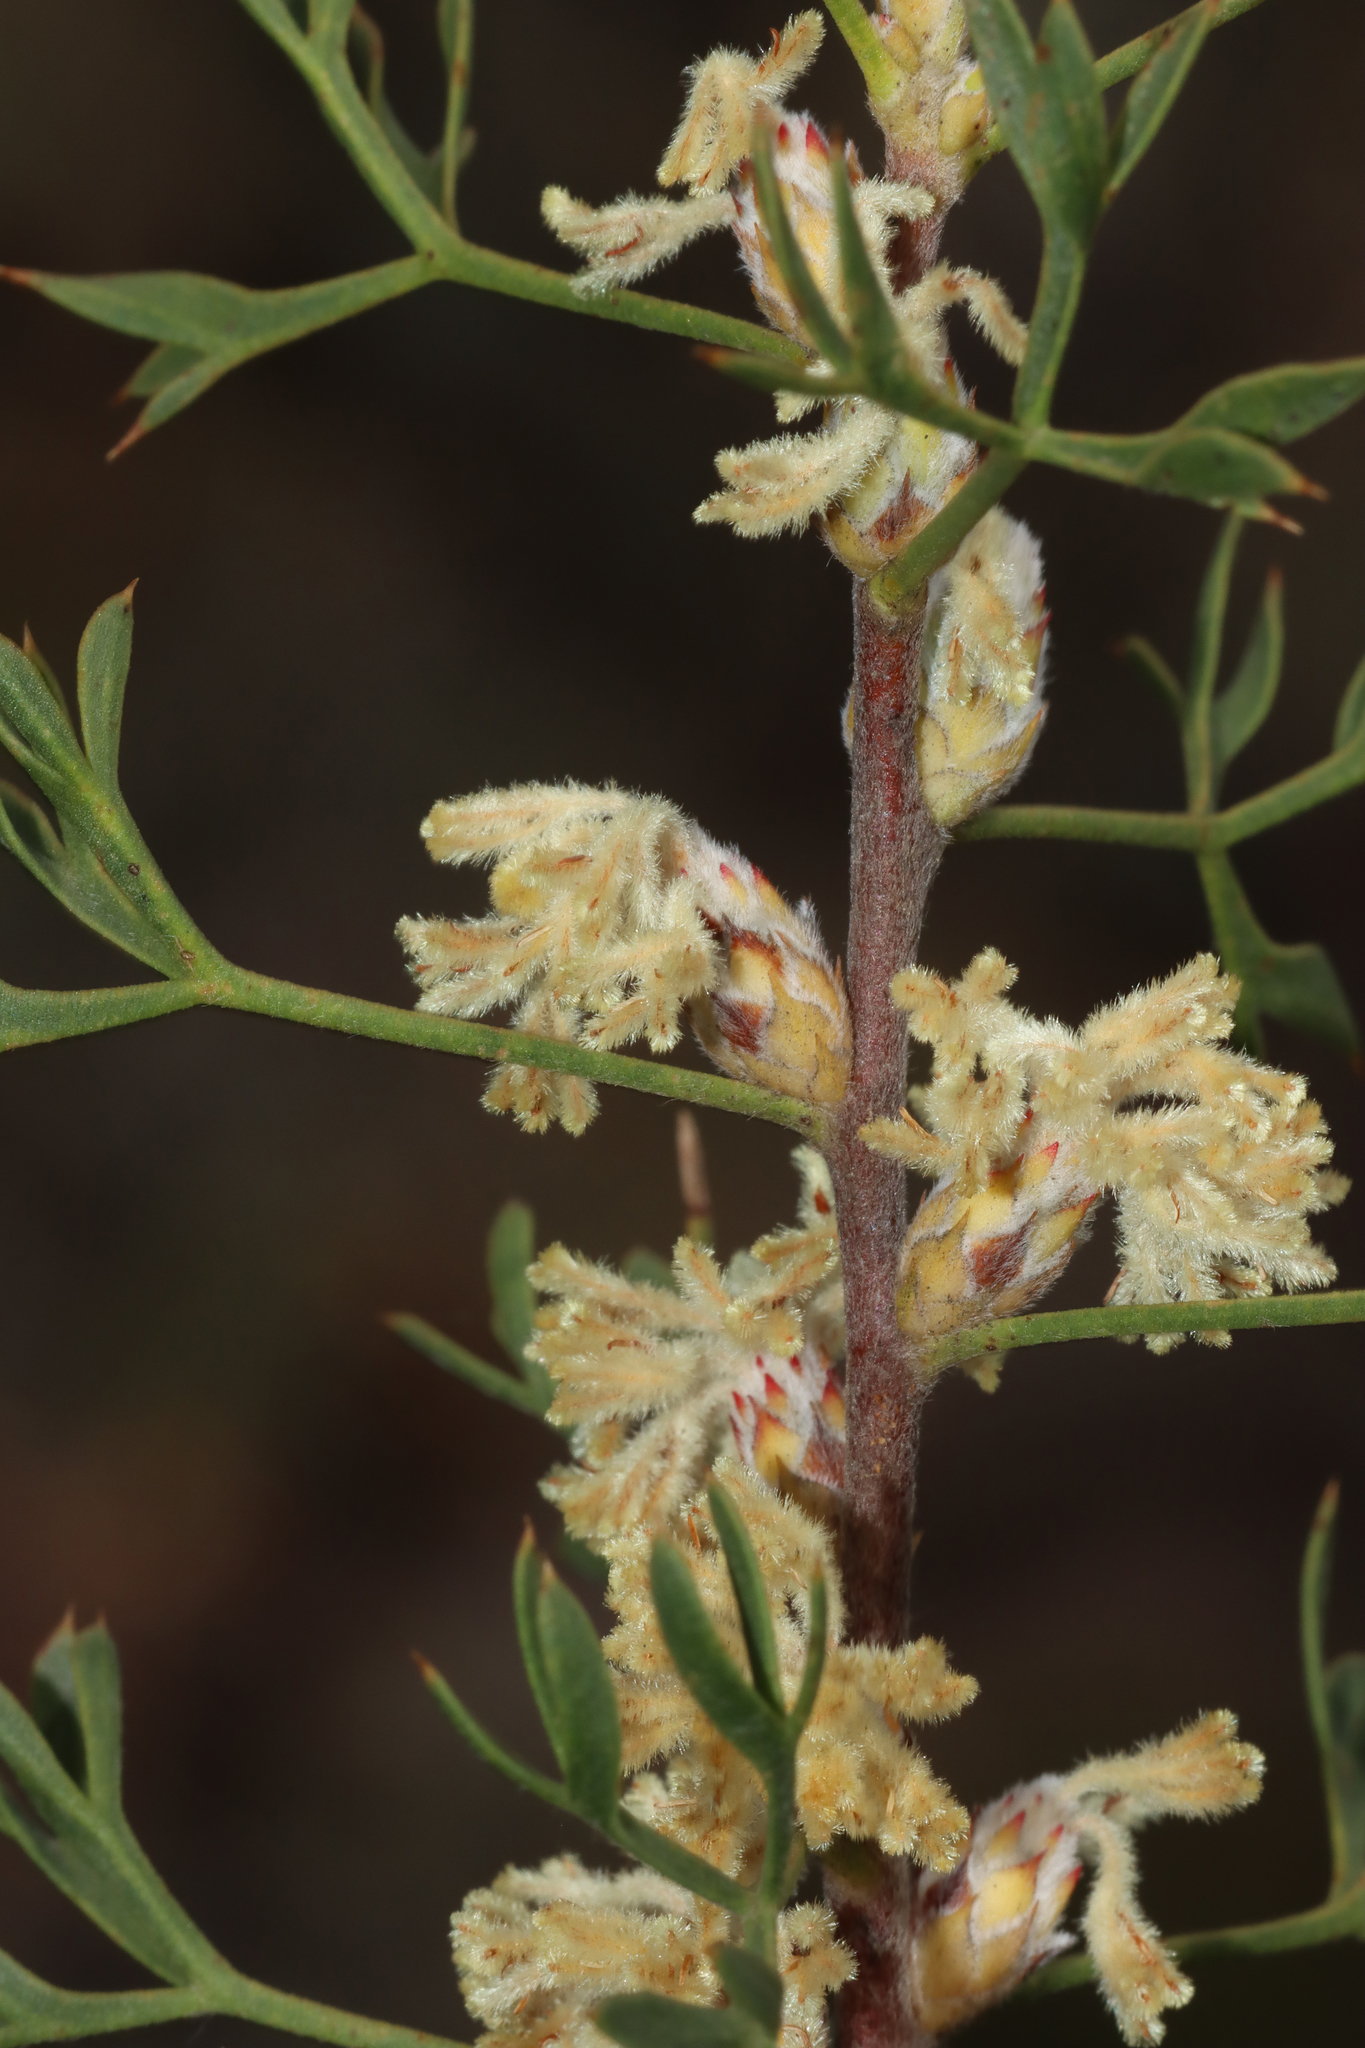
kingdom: Plantae
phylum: Tracheophyta
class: Magnoliopsida
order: Proteales
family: Proteaceae
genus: Petrophile
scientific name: Petrophile striata
